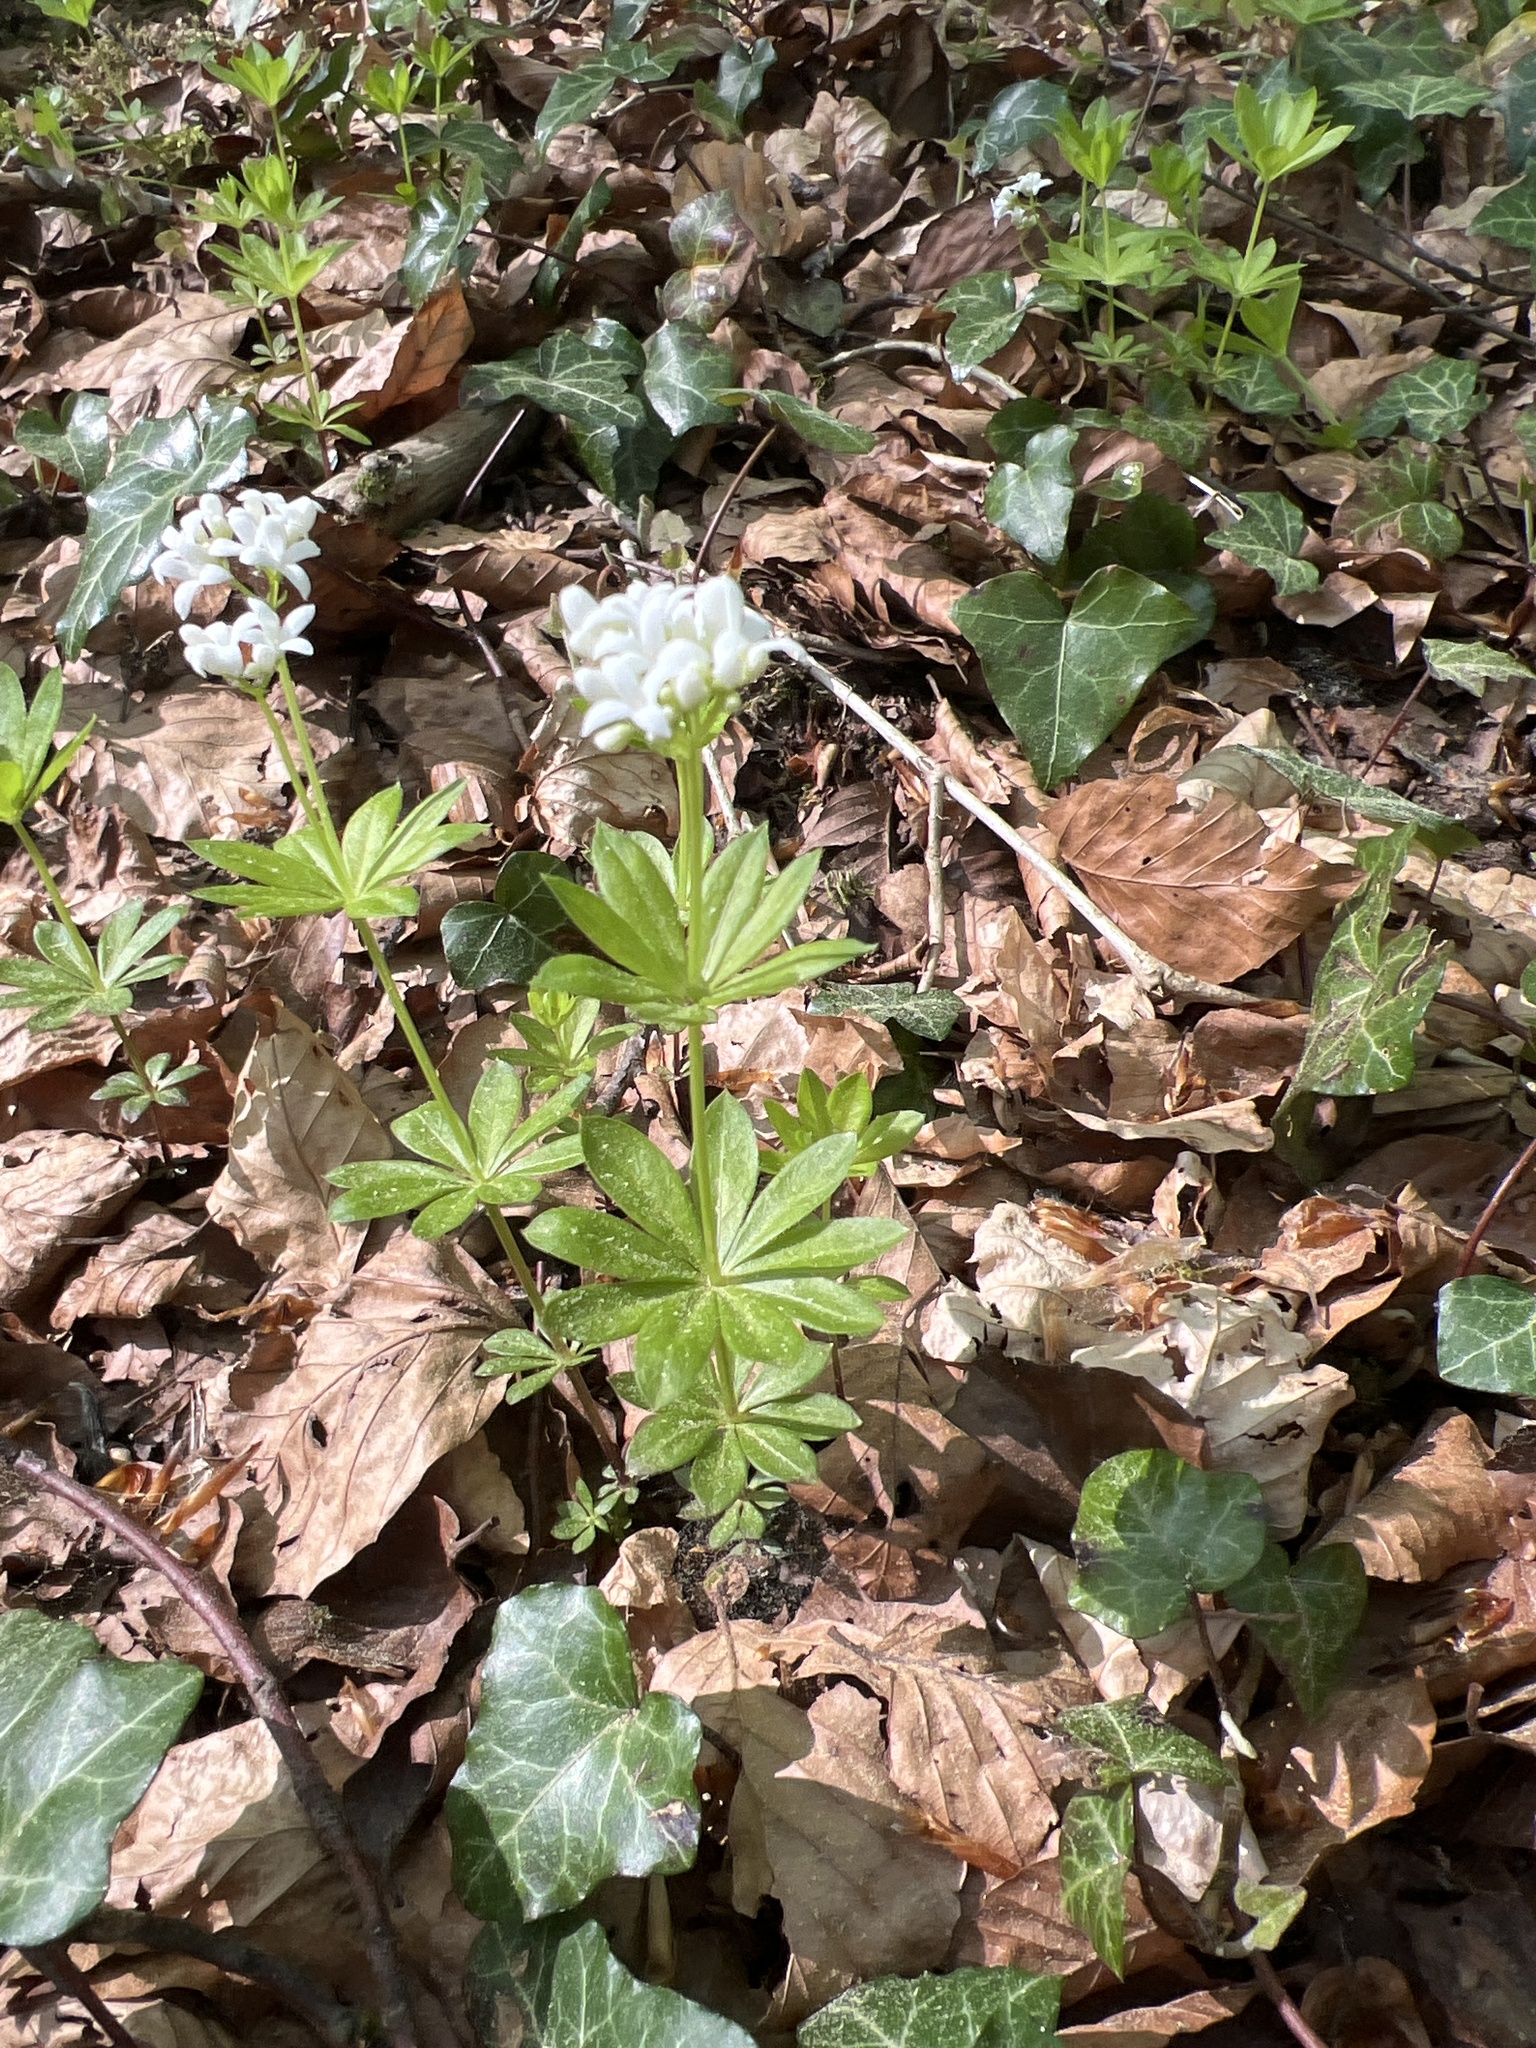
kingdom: Plantae
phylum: Tracheophyta
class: Magnoliopsida
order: Gentianales
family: Rubiaceae
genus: Galium
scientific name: Galium odoratum
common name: Sweet woodruff
